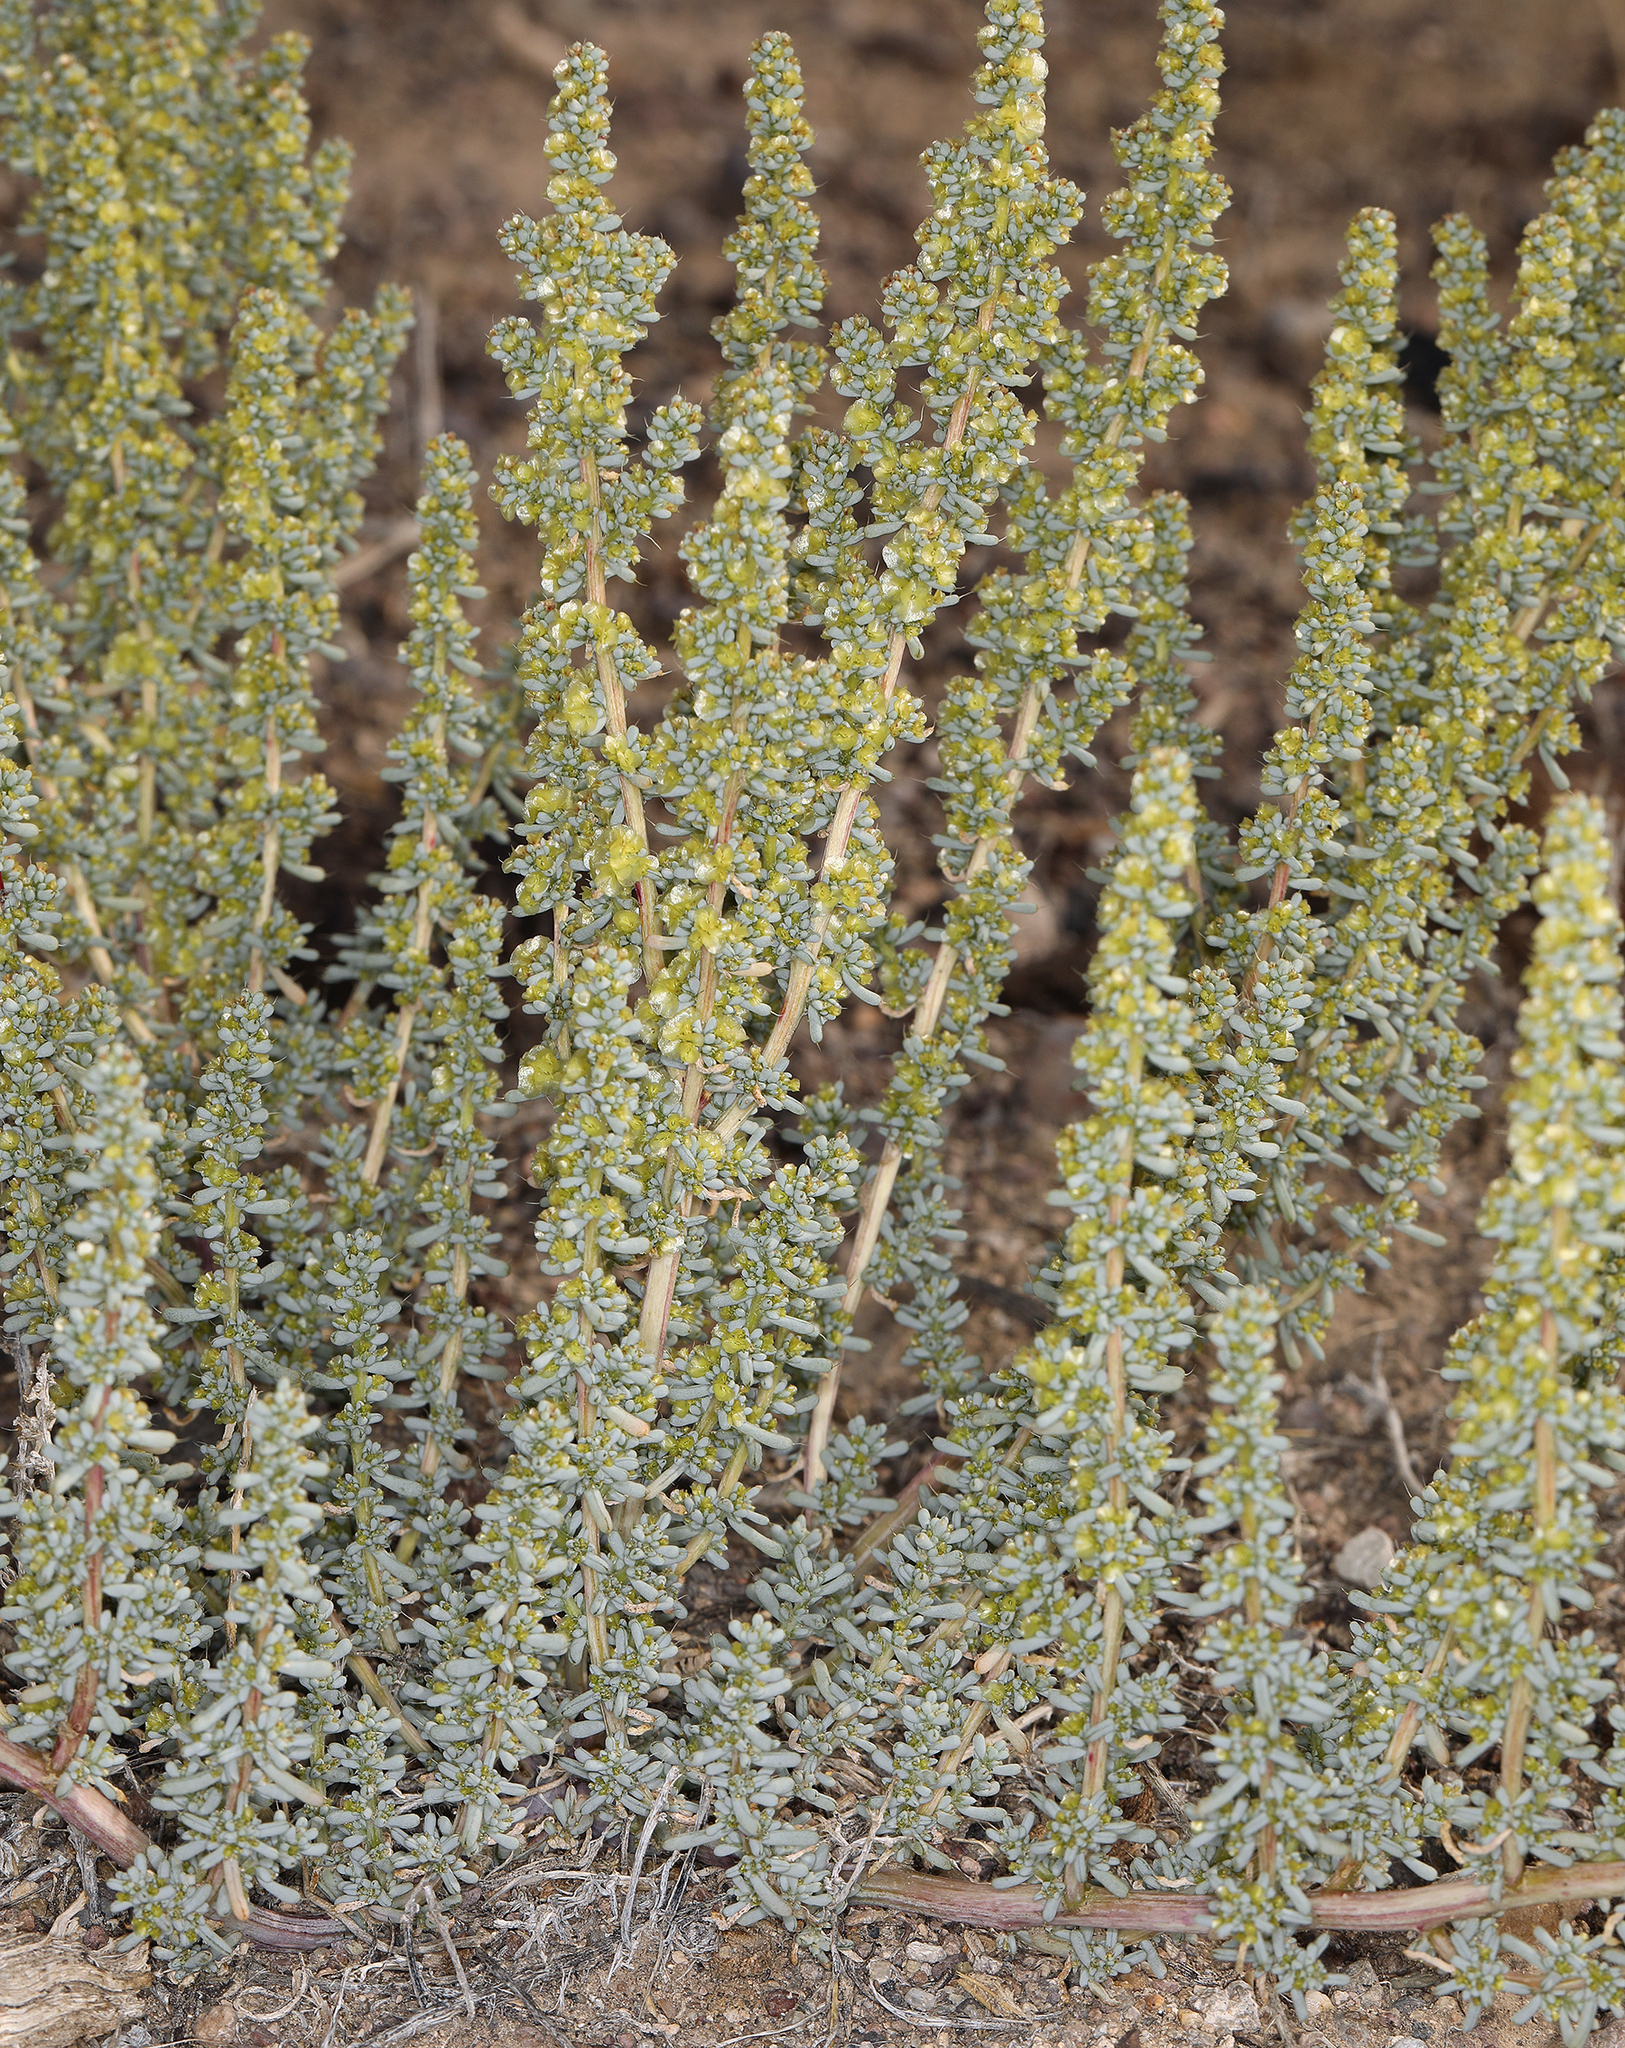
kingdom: Plantae
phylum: Tracheophyta
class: Magnoliopsida
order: Caryophyllales
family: Amaranthaceae
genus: Halogeton
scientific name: Halogeton glomeratus
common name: Saltlover
